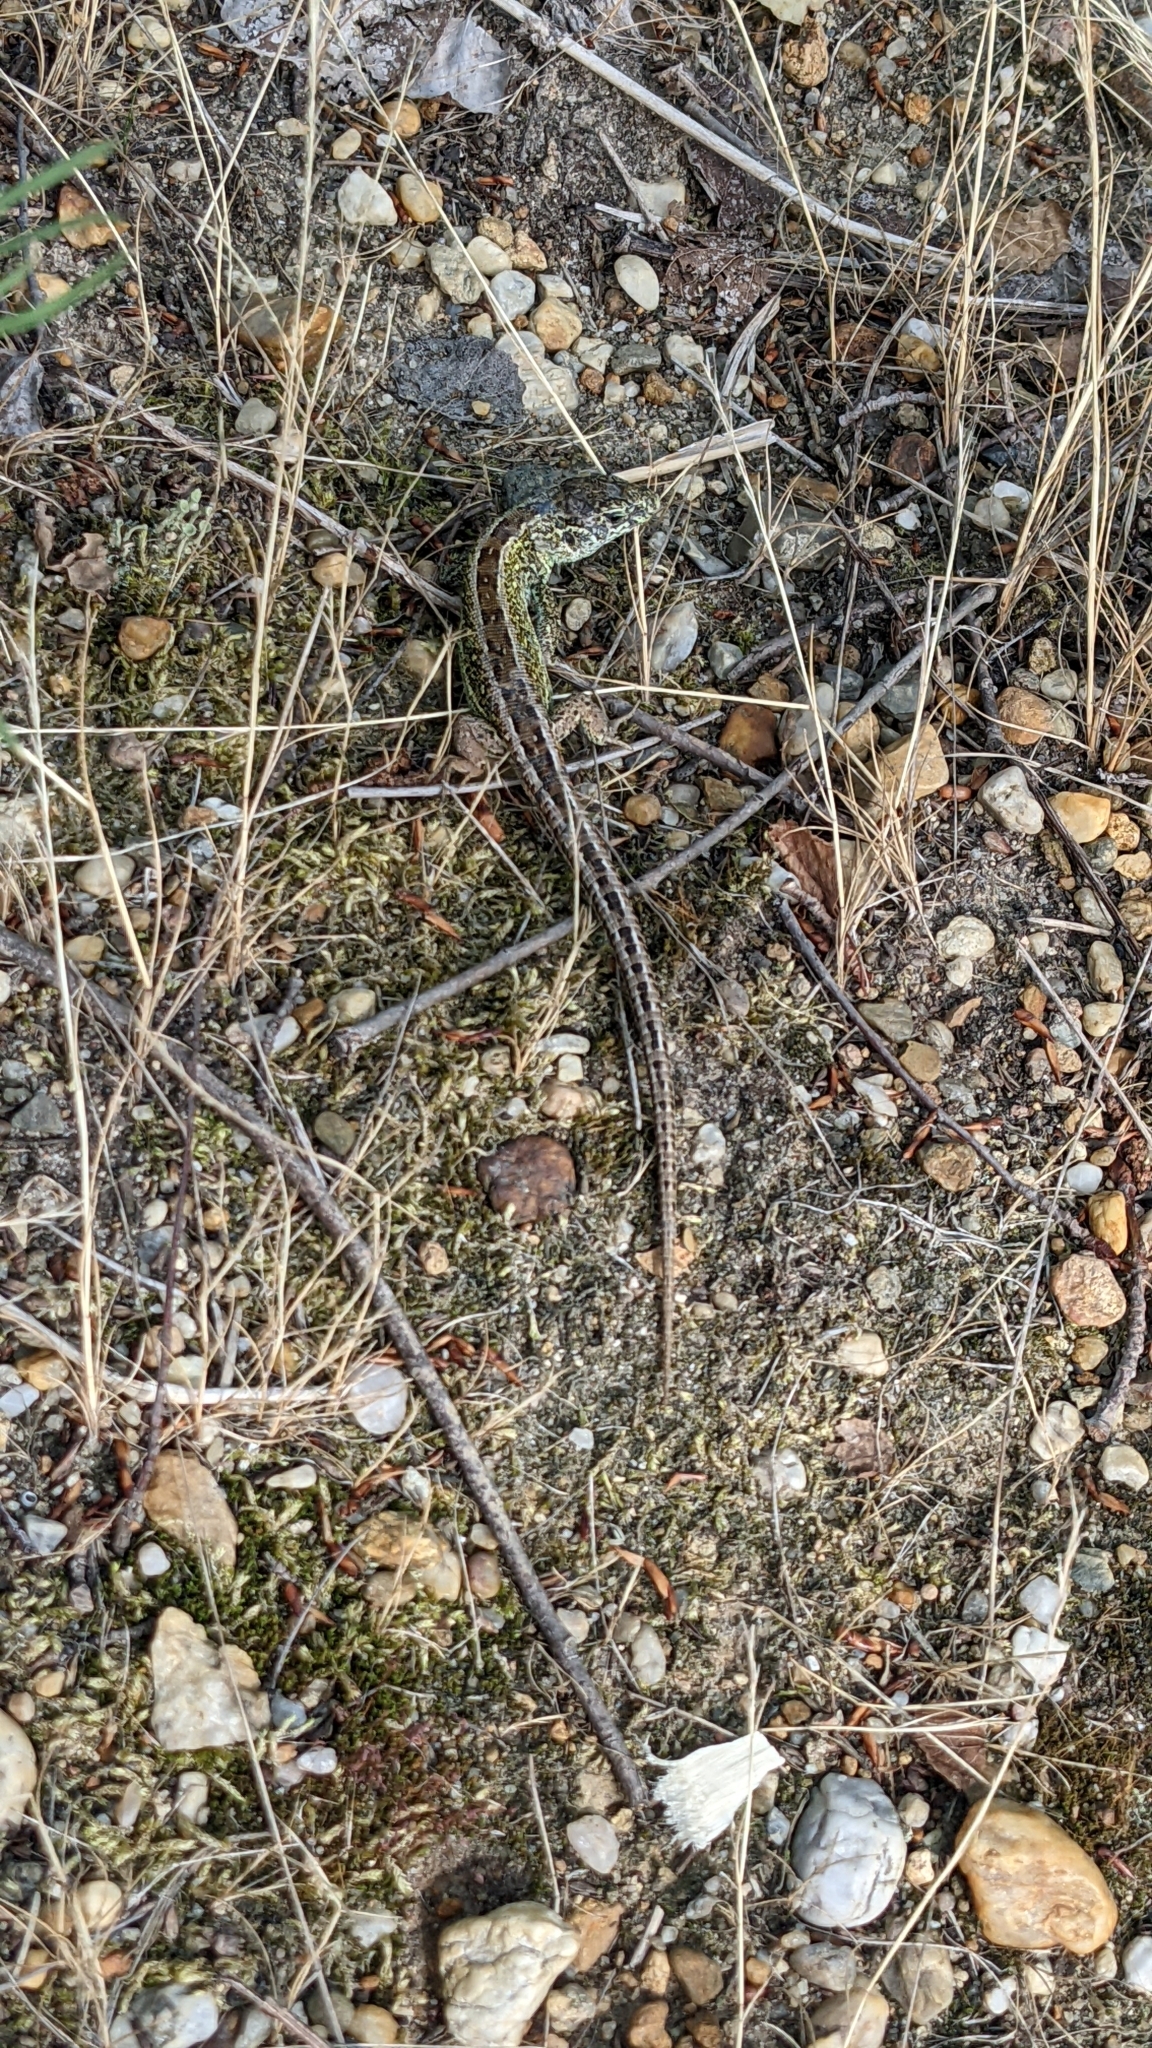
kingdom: Animalia
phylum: Chordata
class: Squamata
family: Lacertidae
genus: Lacerta
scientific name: Lacerta agilis
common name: Sand lizard
